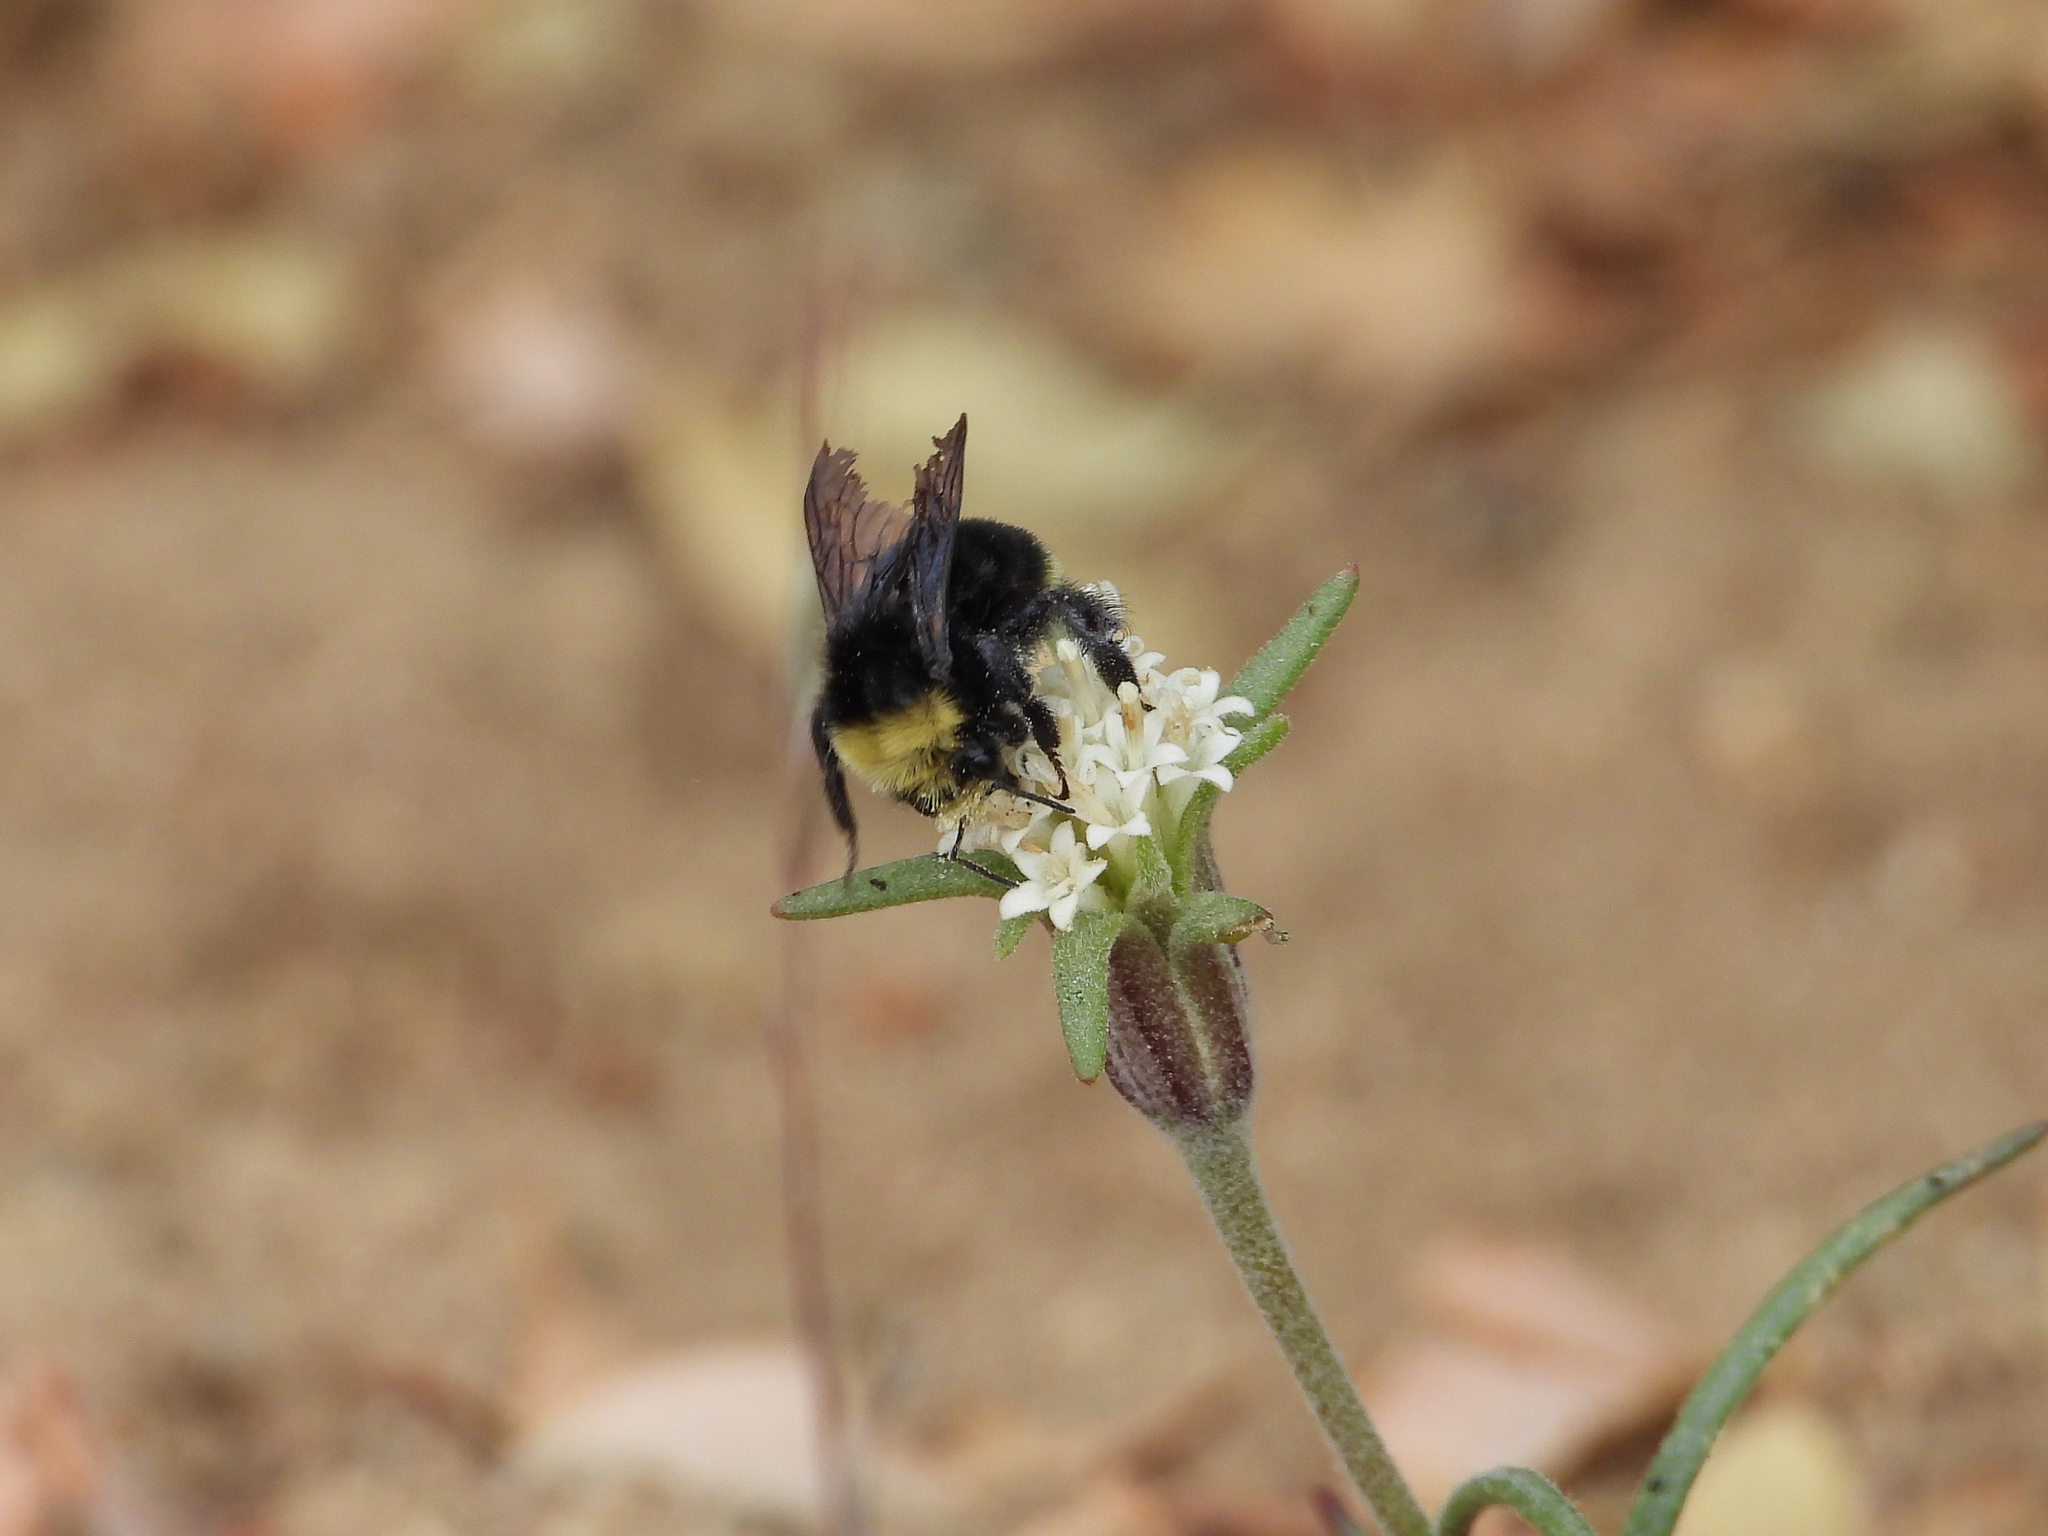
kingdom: Animalia
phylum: Arthropoda
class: Insecta
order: Hymenoptera
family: Apidae
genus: Bombus
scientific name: Bombus vosnesenskii
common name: Vosnesensky bumble bee
